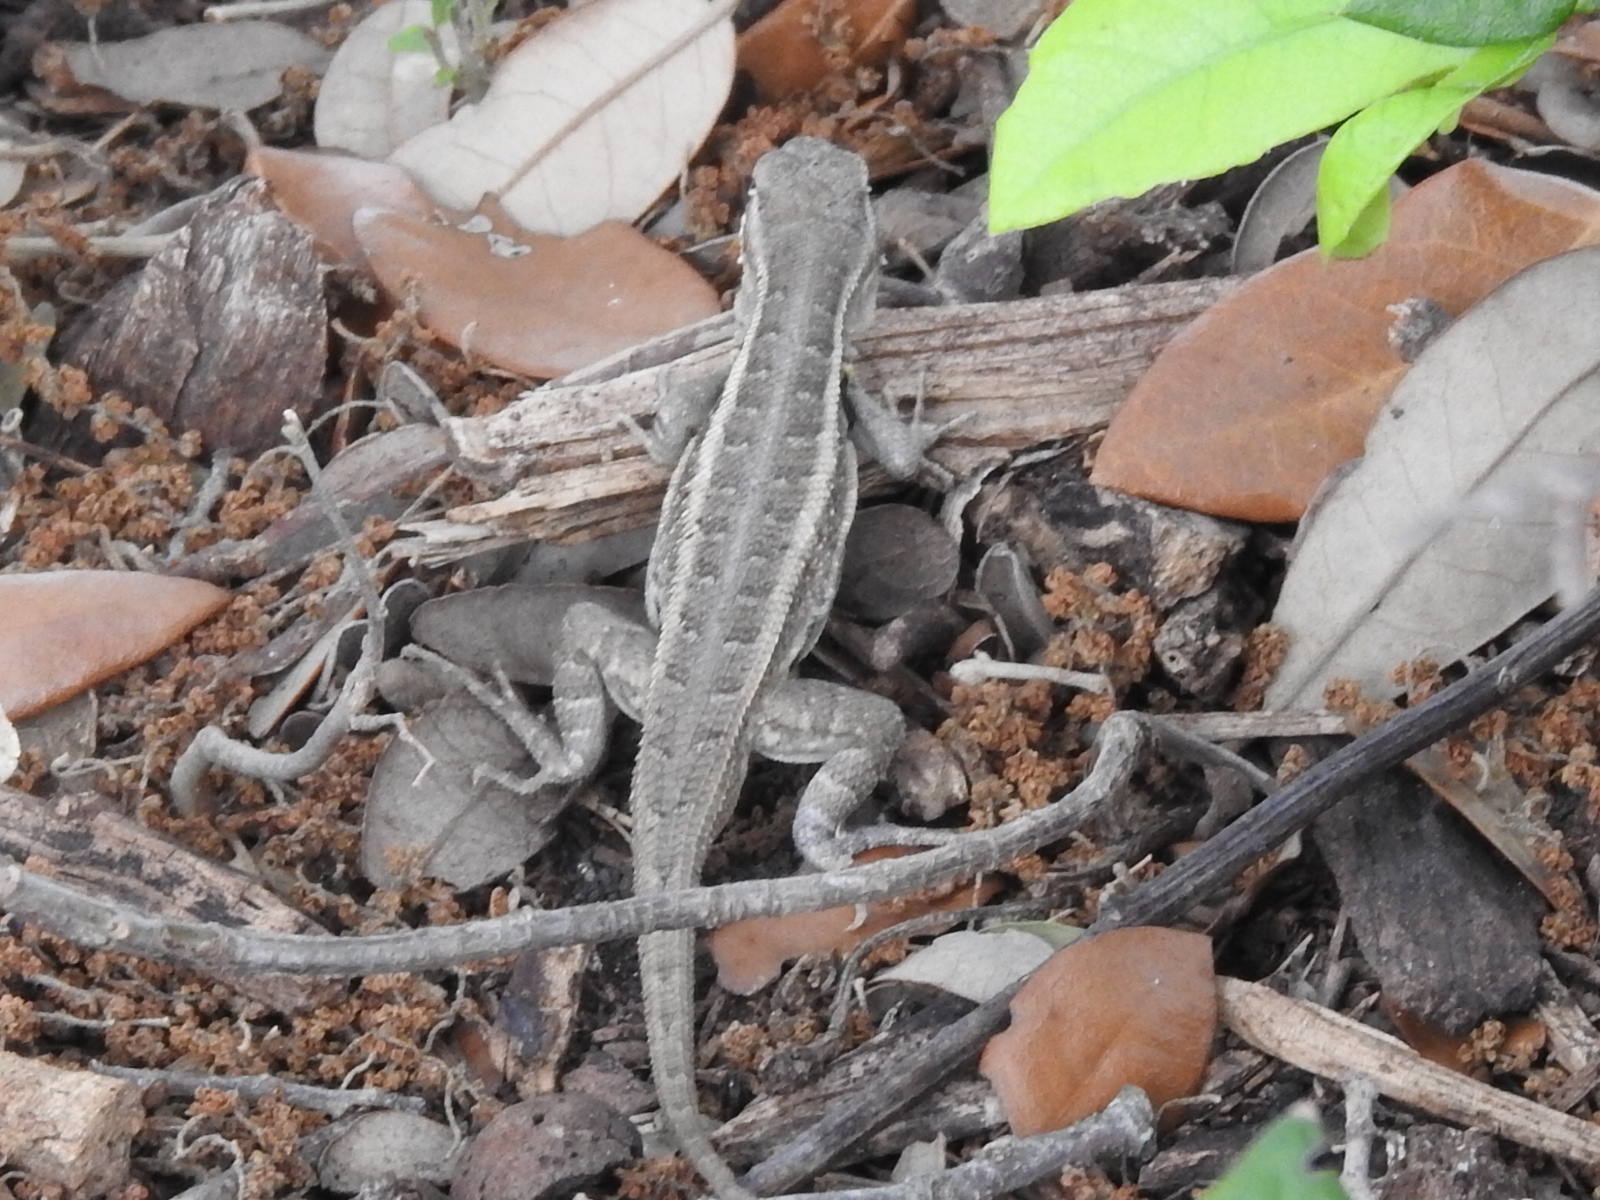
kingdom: Animalia
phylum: Chordata
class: Squamata
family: Phrynosomatidae
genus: Sceloporus
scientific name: Sceloporus variabilis
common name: Rosebelly lizard
